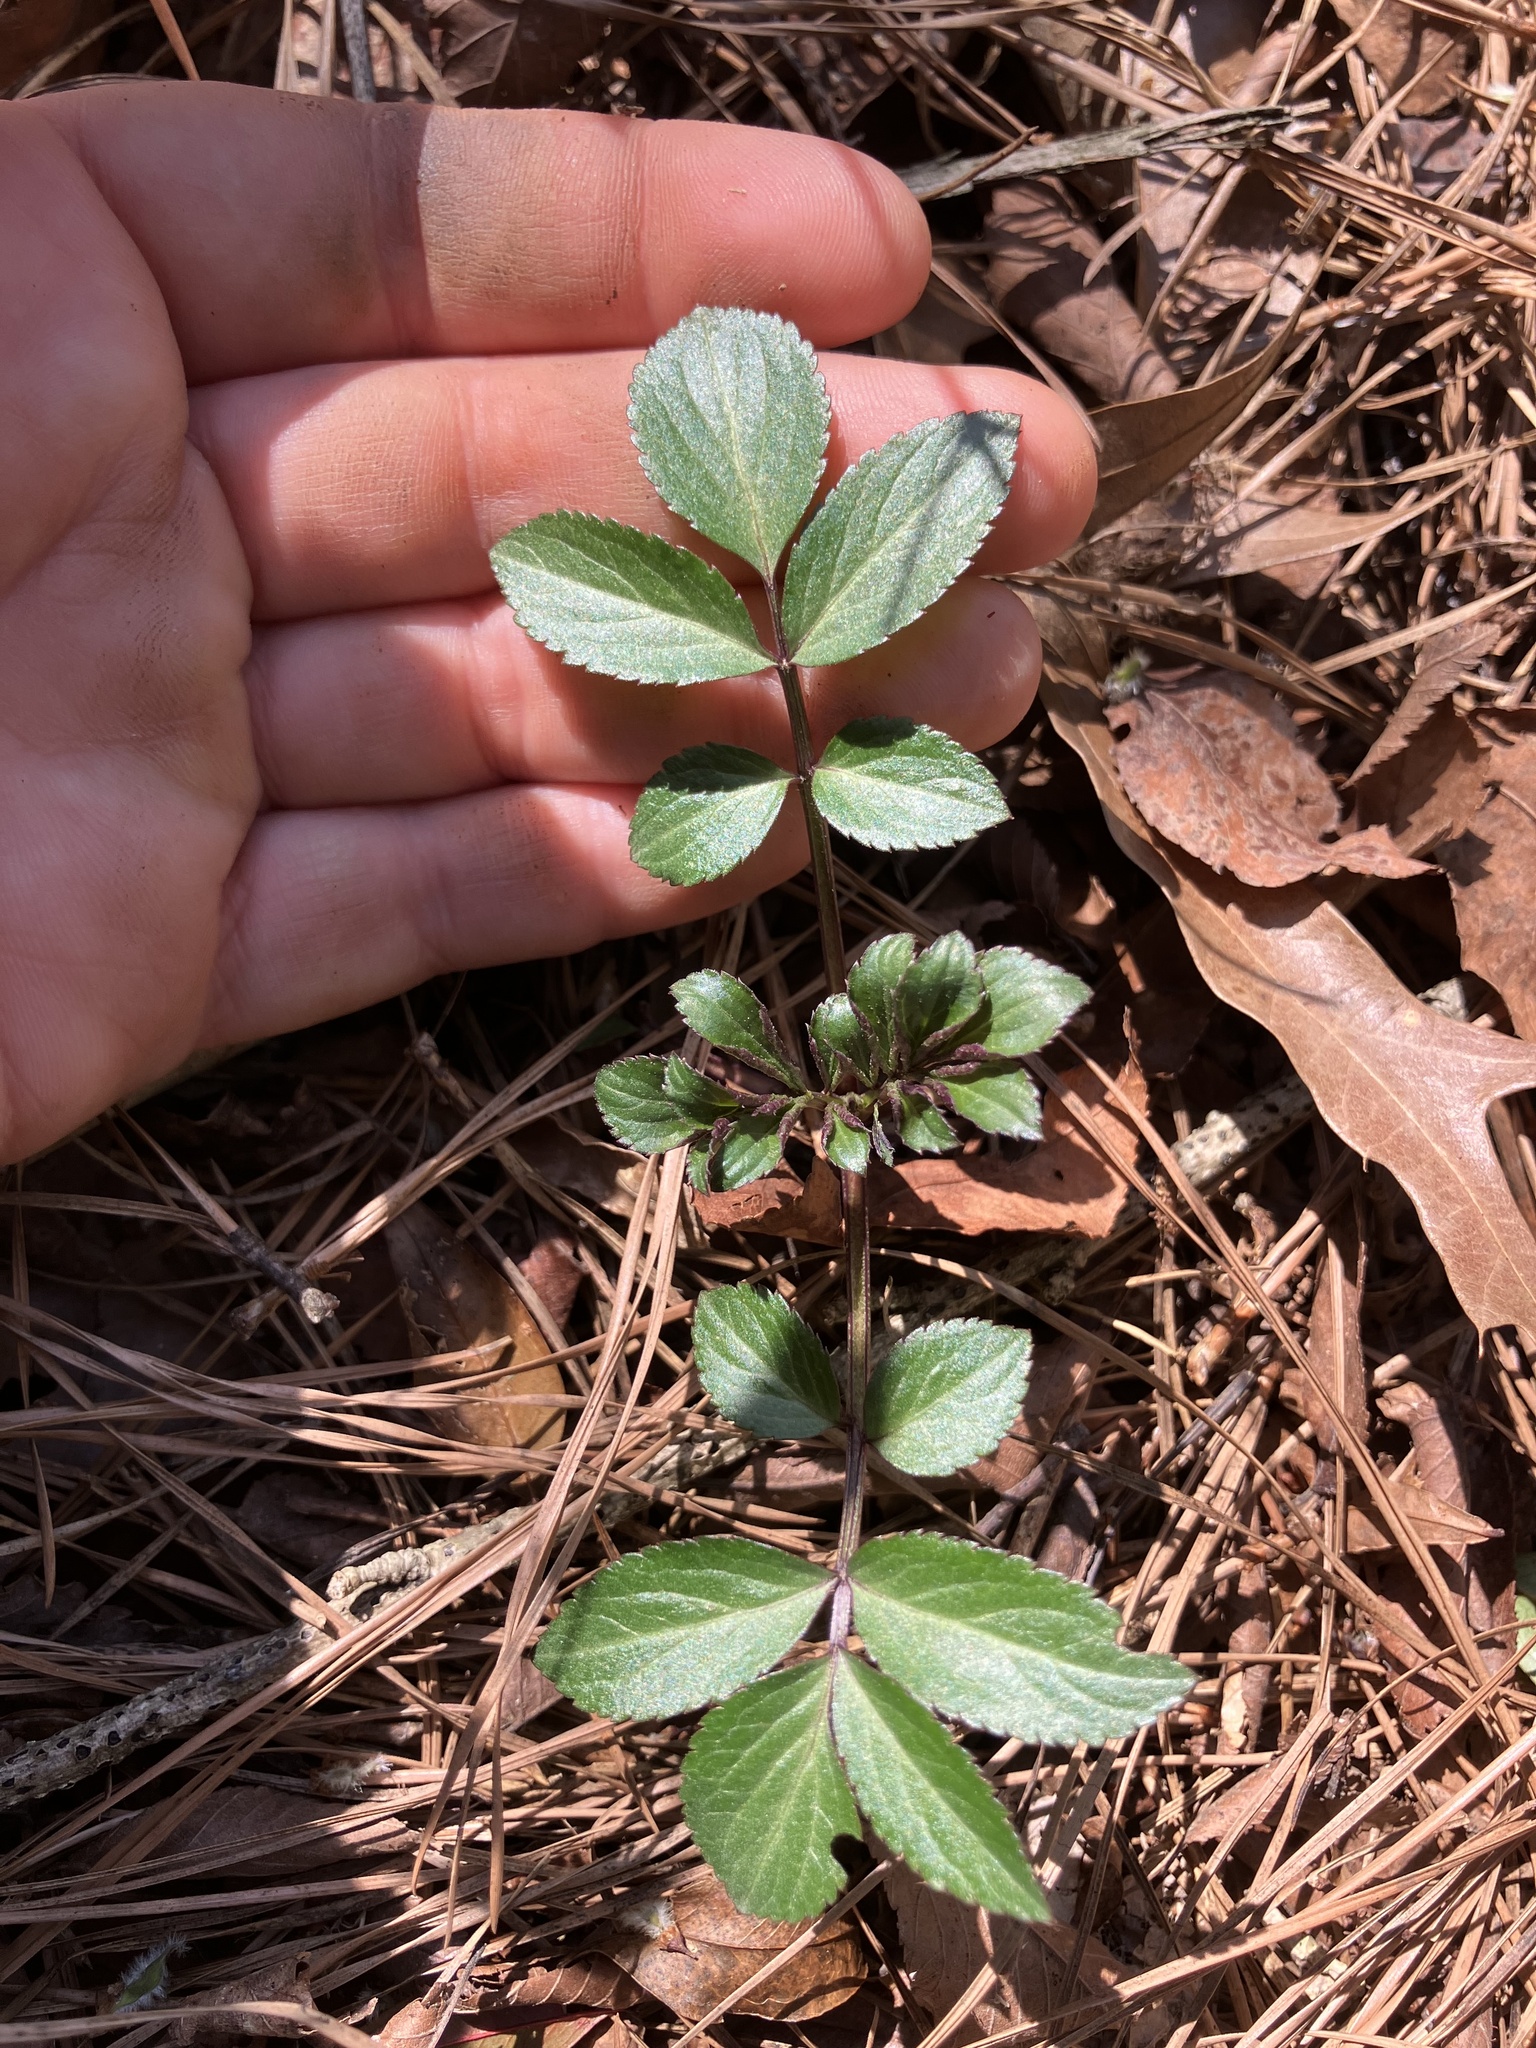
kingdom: Plantae
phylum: Tracheophyta
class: Magnoliopsida
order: Dipsacales
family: Viburnaceae
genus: Sambucus
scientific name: Sambucus canadensis
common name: American elder
